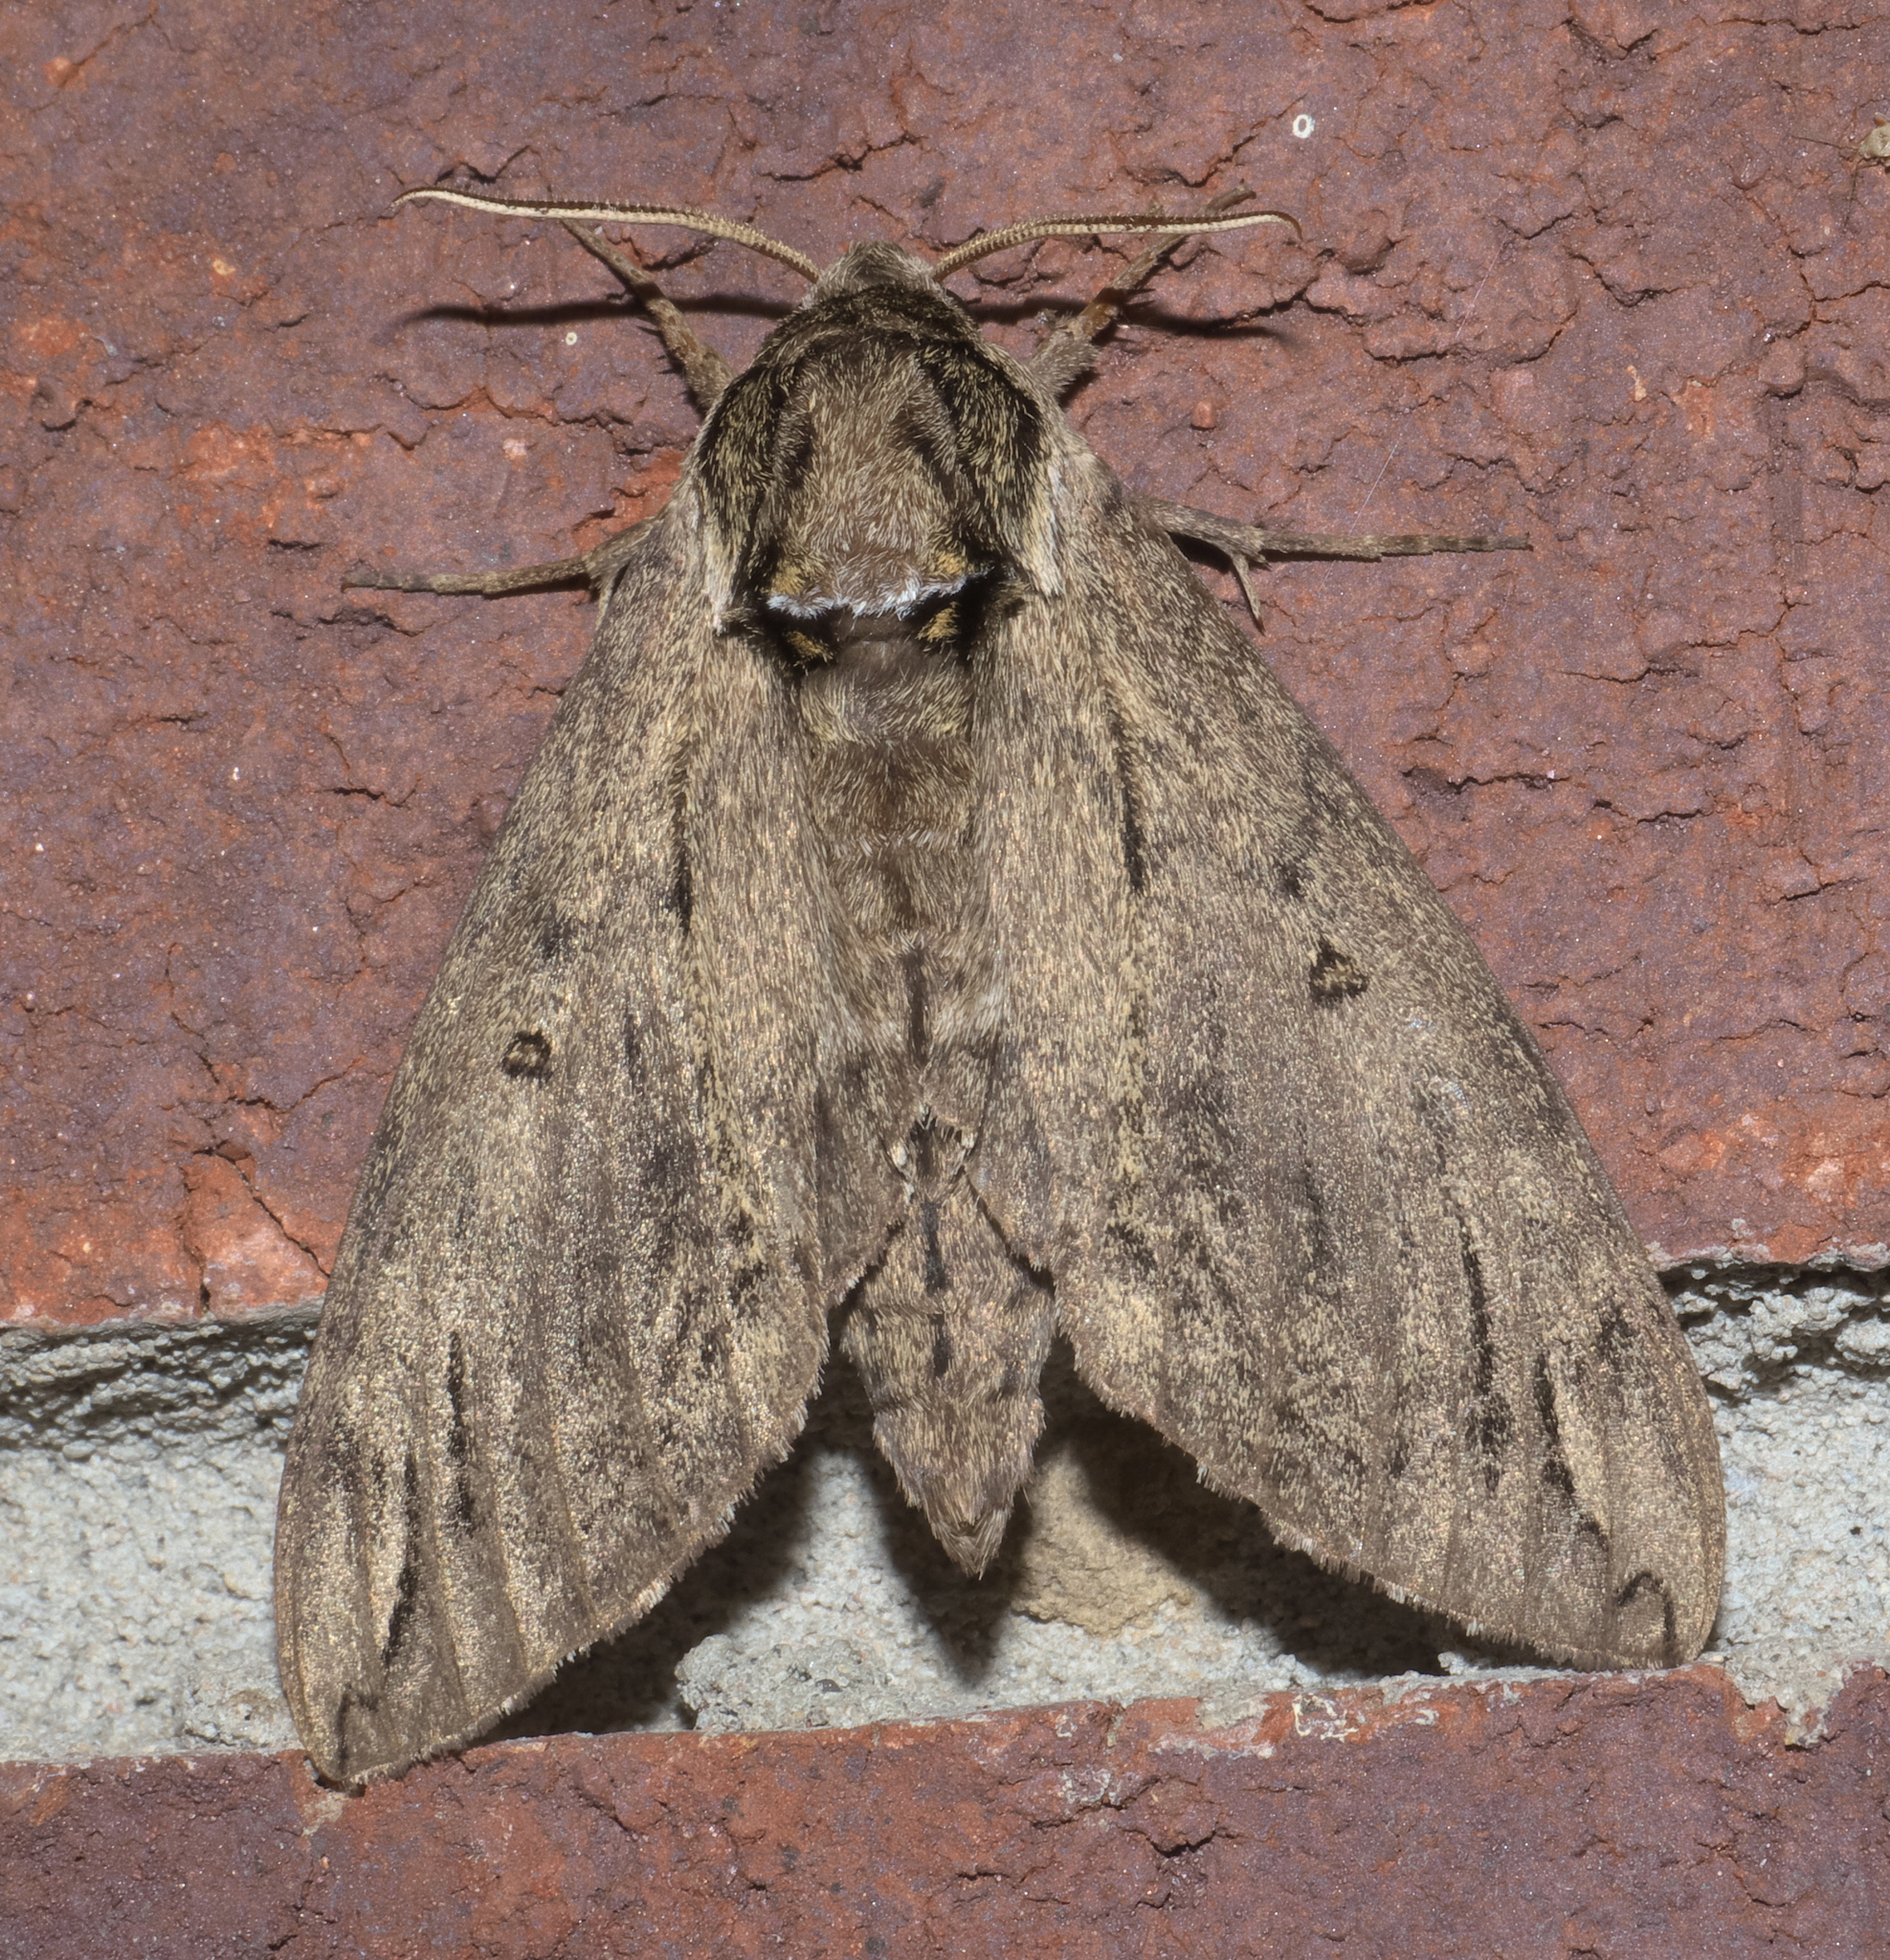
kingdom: Animalia
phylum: Arthropoda
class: Insecta
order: Lepidoptera
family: Sphingidae
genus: Ceratomia
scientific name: Ceratomia catalpae
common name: Catalpa hornworm
